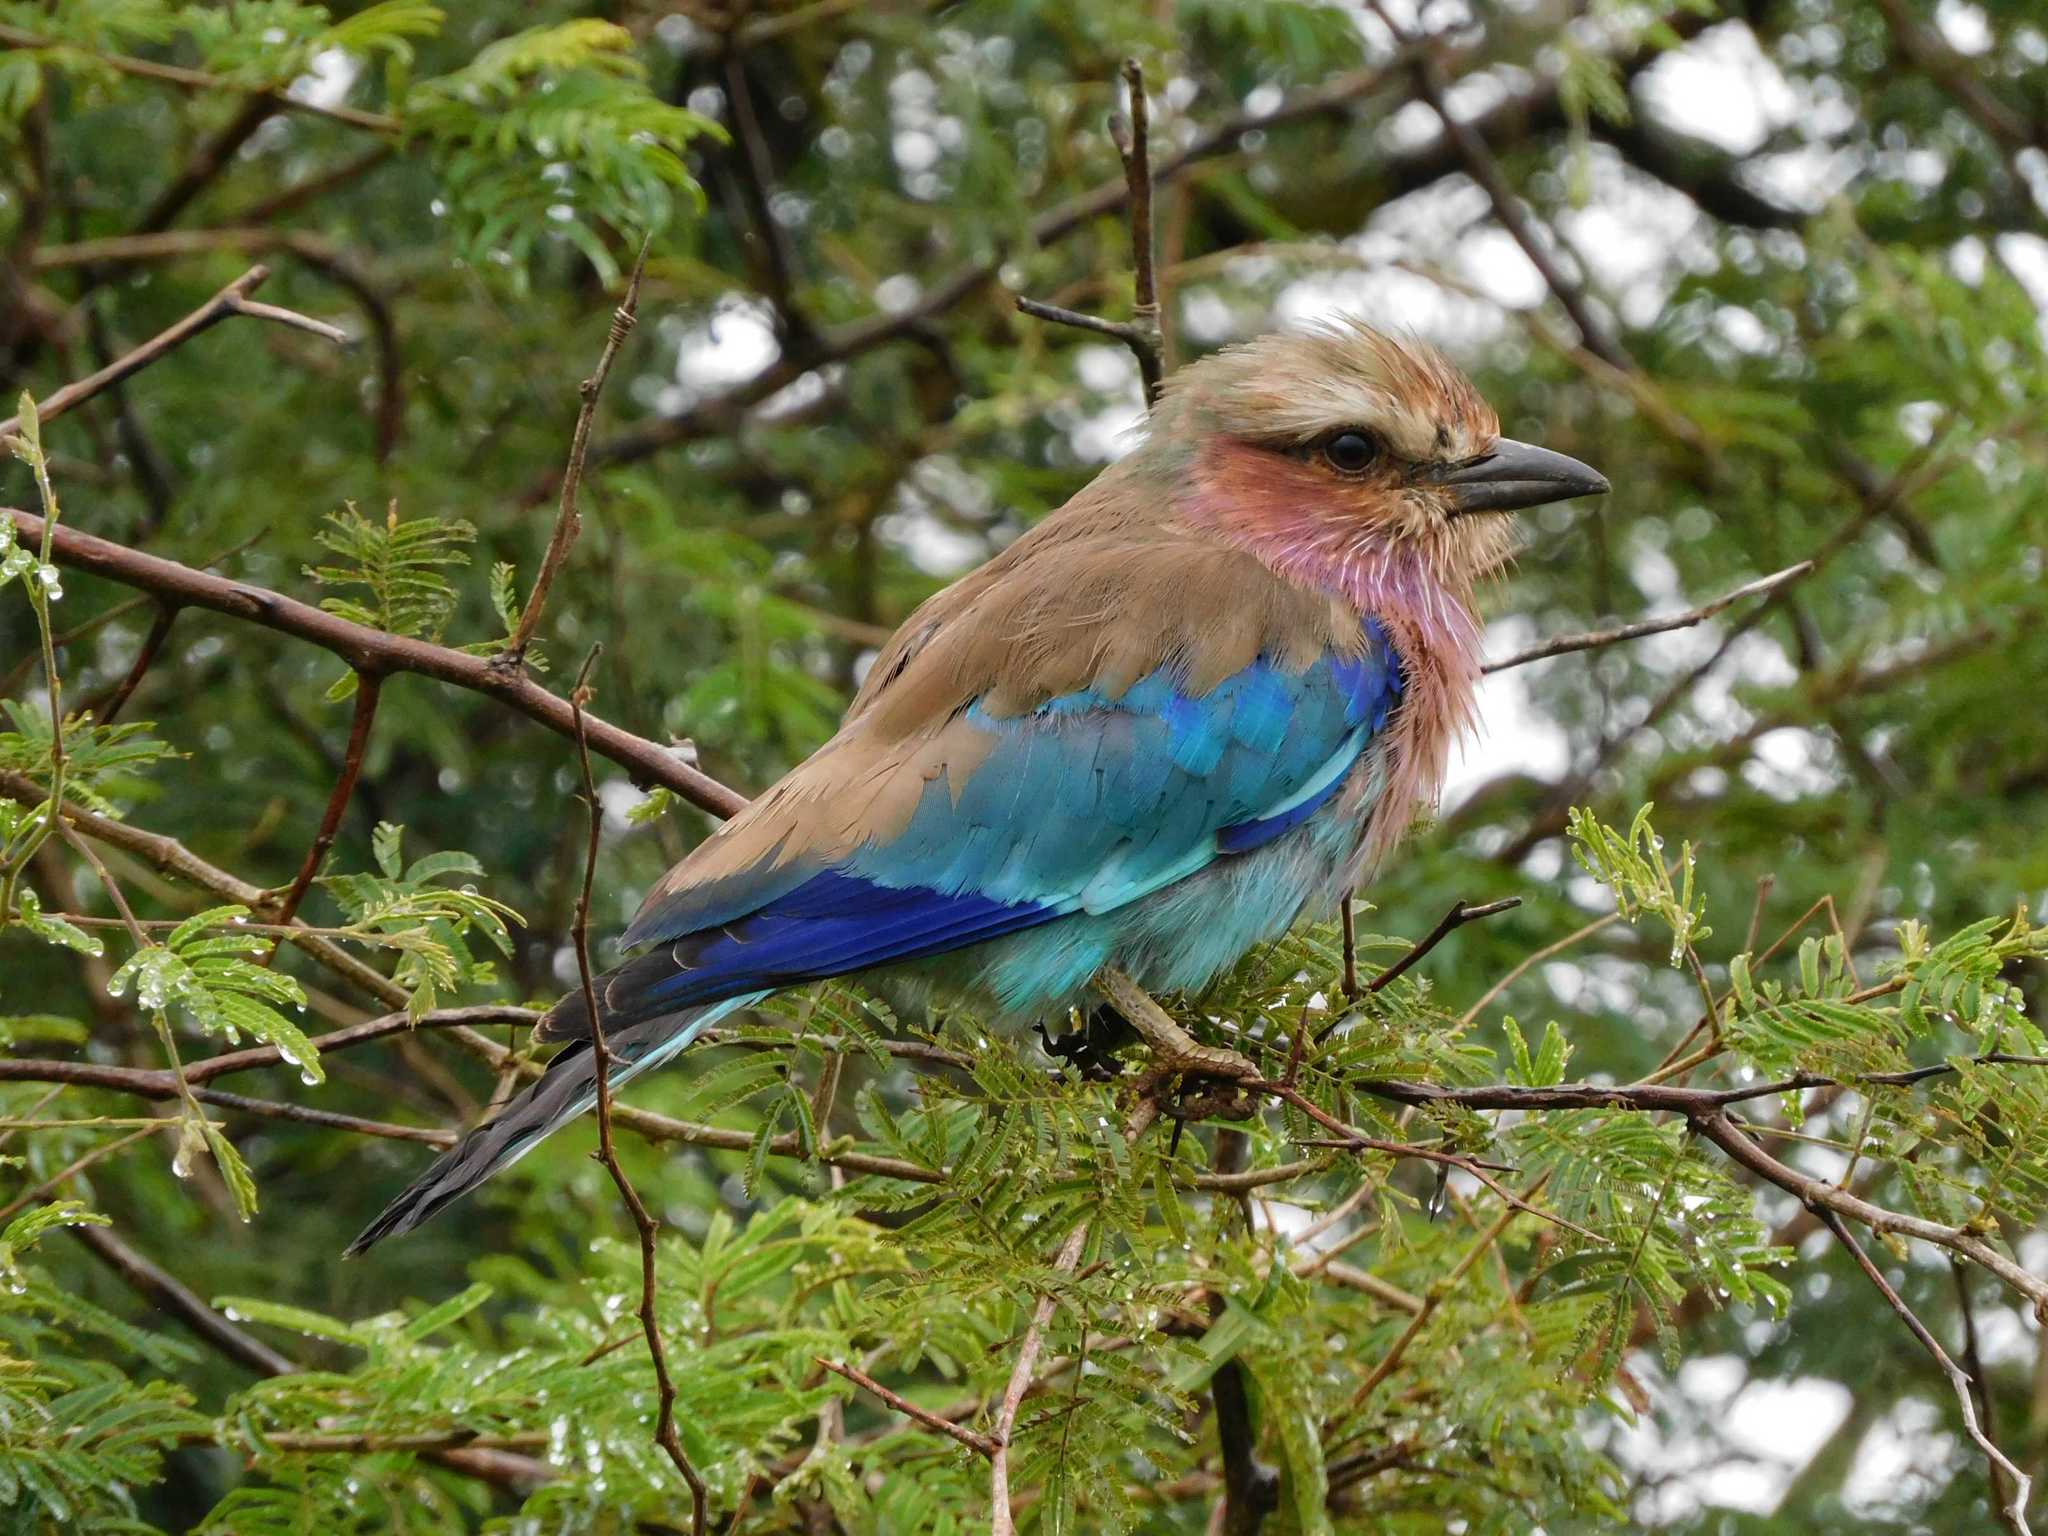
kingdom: Animalia
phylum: Chordata
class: Aves
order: Coraciiformes
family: Coraciidae
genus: Coracias
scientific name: Coracias caudatus
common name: Lilac-breasted roller
